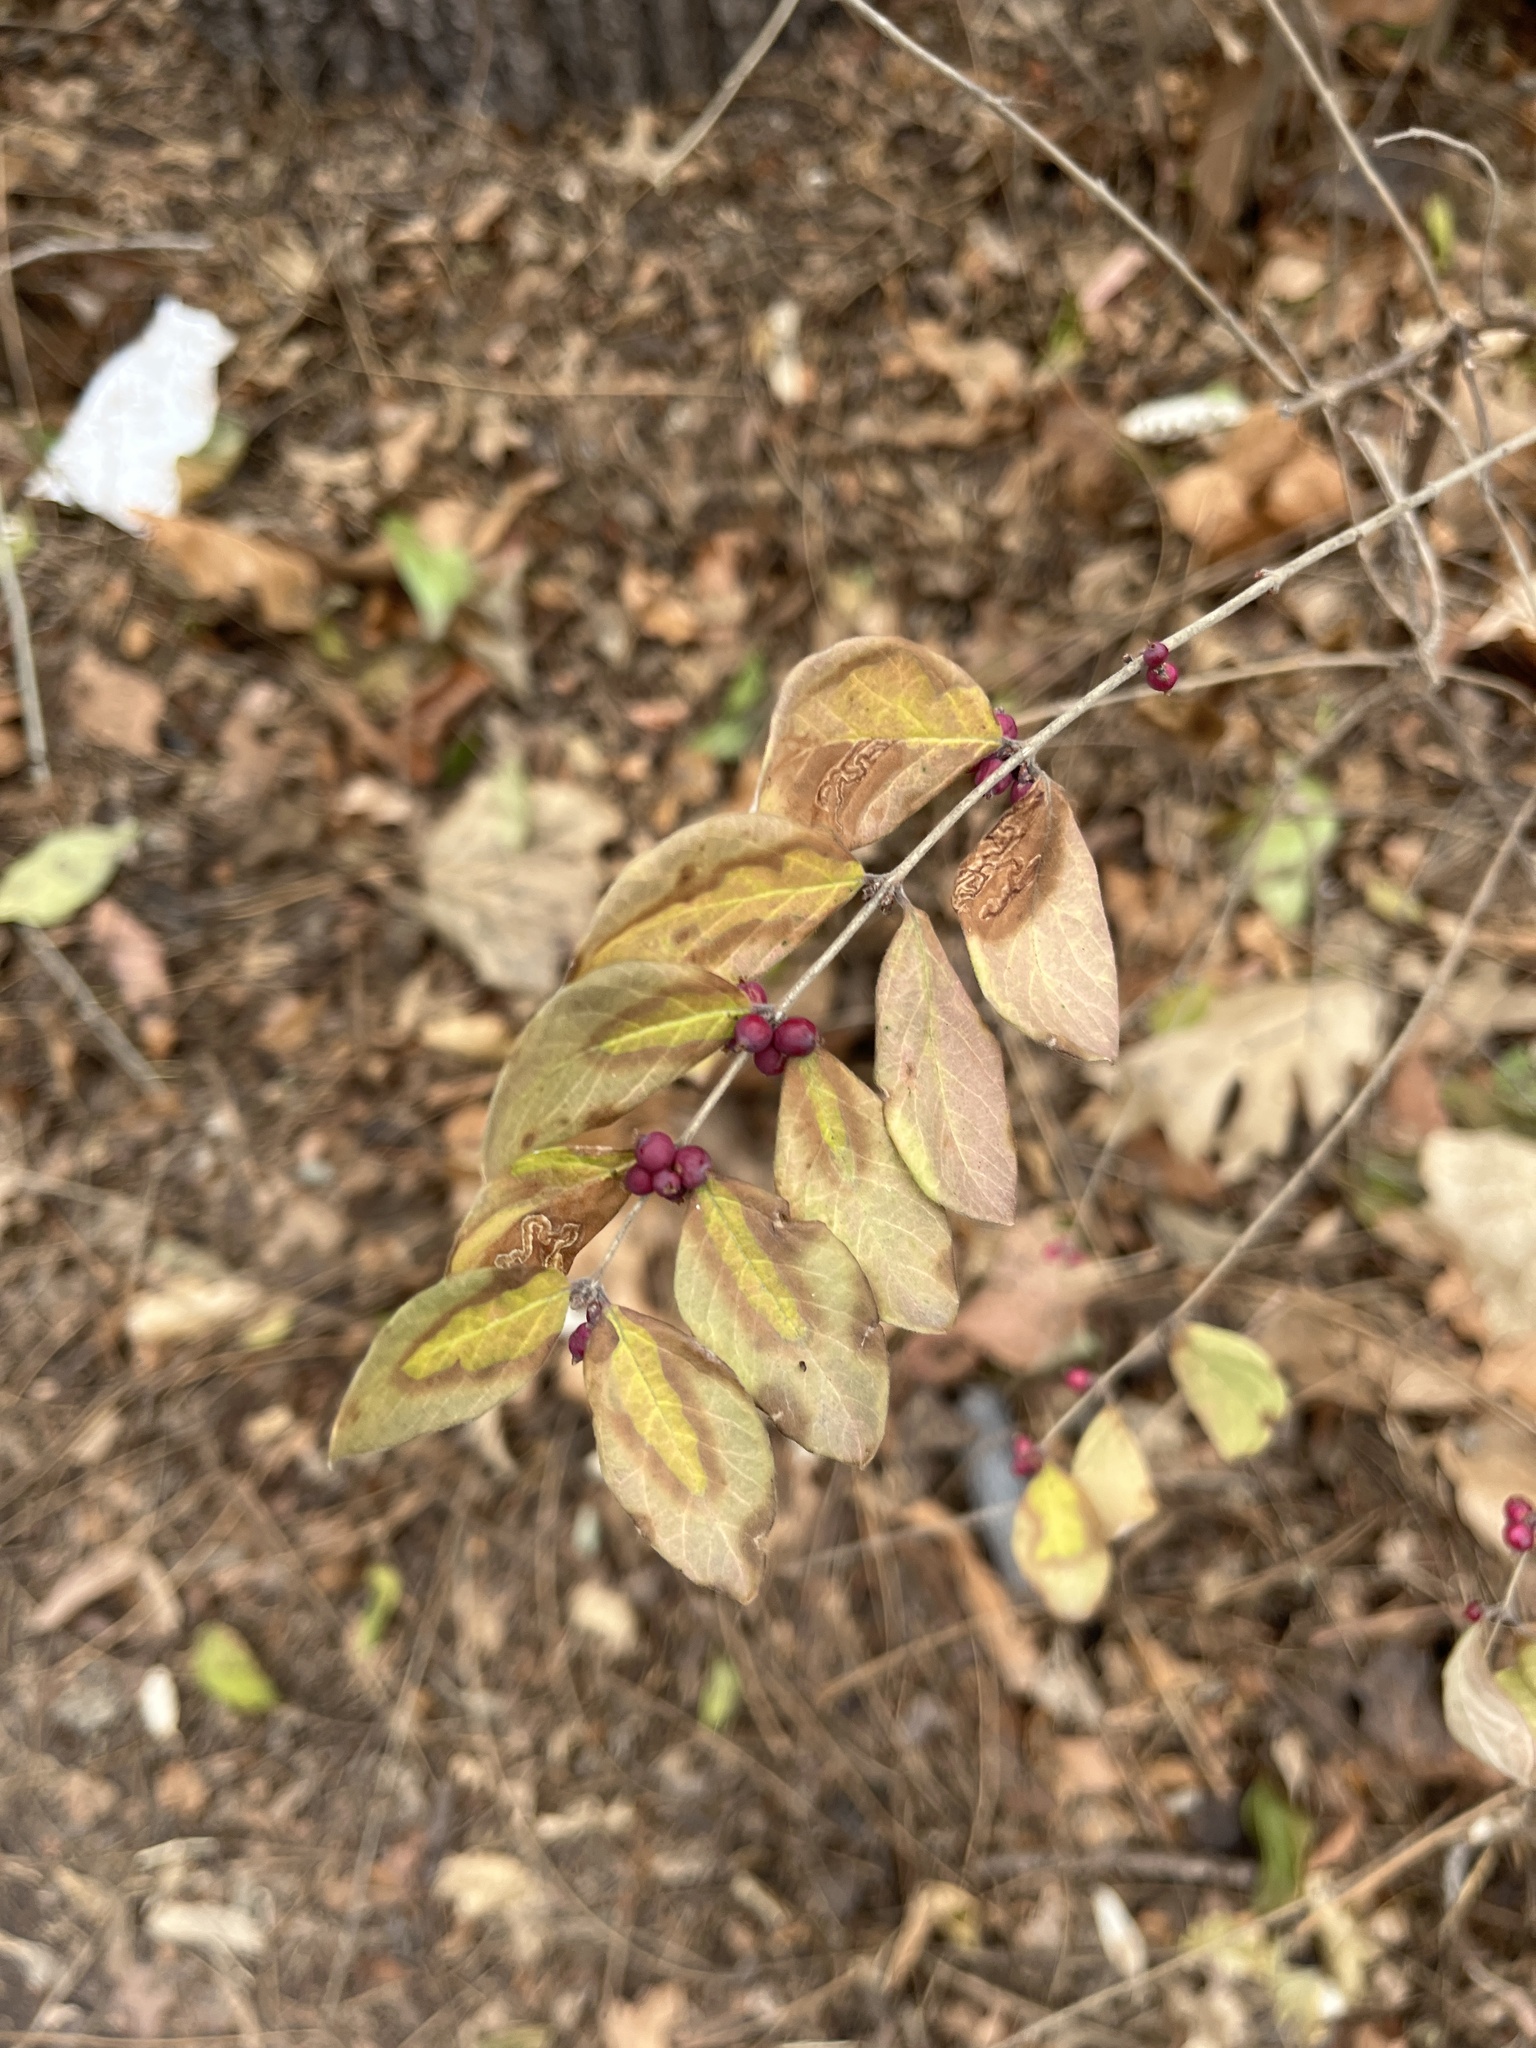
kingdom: Plantae
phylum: Tracheophyta
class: Magnoliopsida
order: Dipsacales
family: Caprifoliaceae
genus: Symphoricarpos
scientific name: Symphoricarpos orbiculatus
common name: Coralberry
